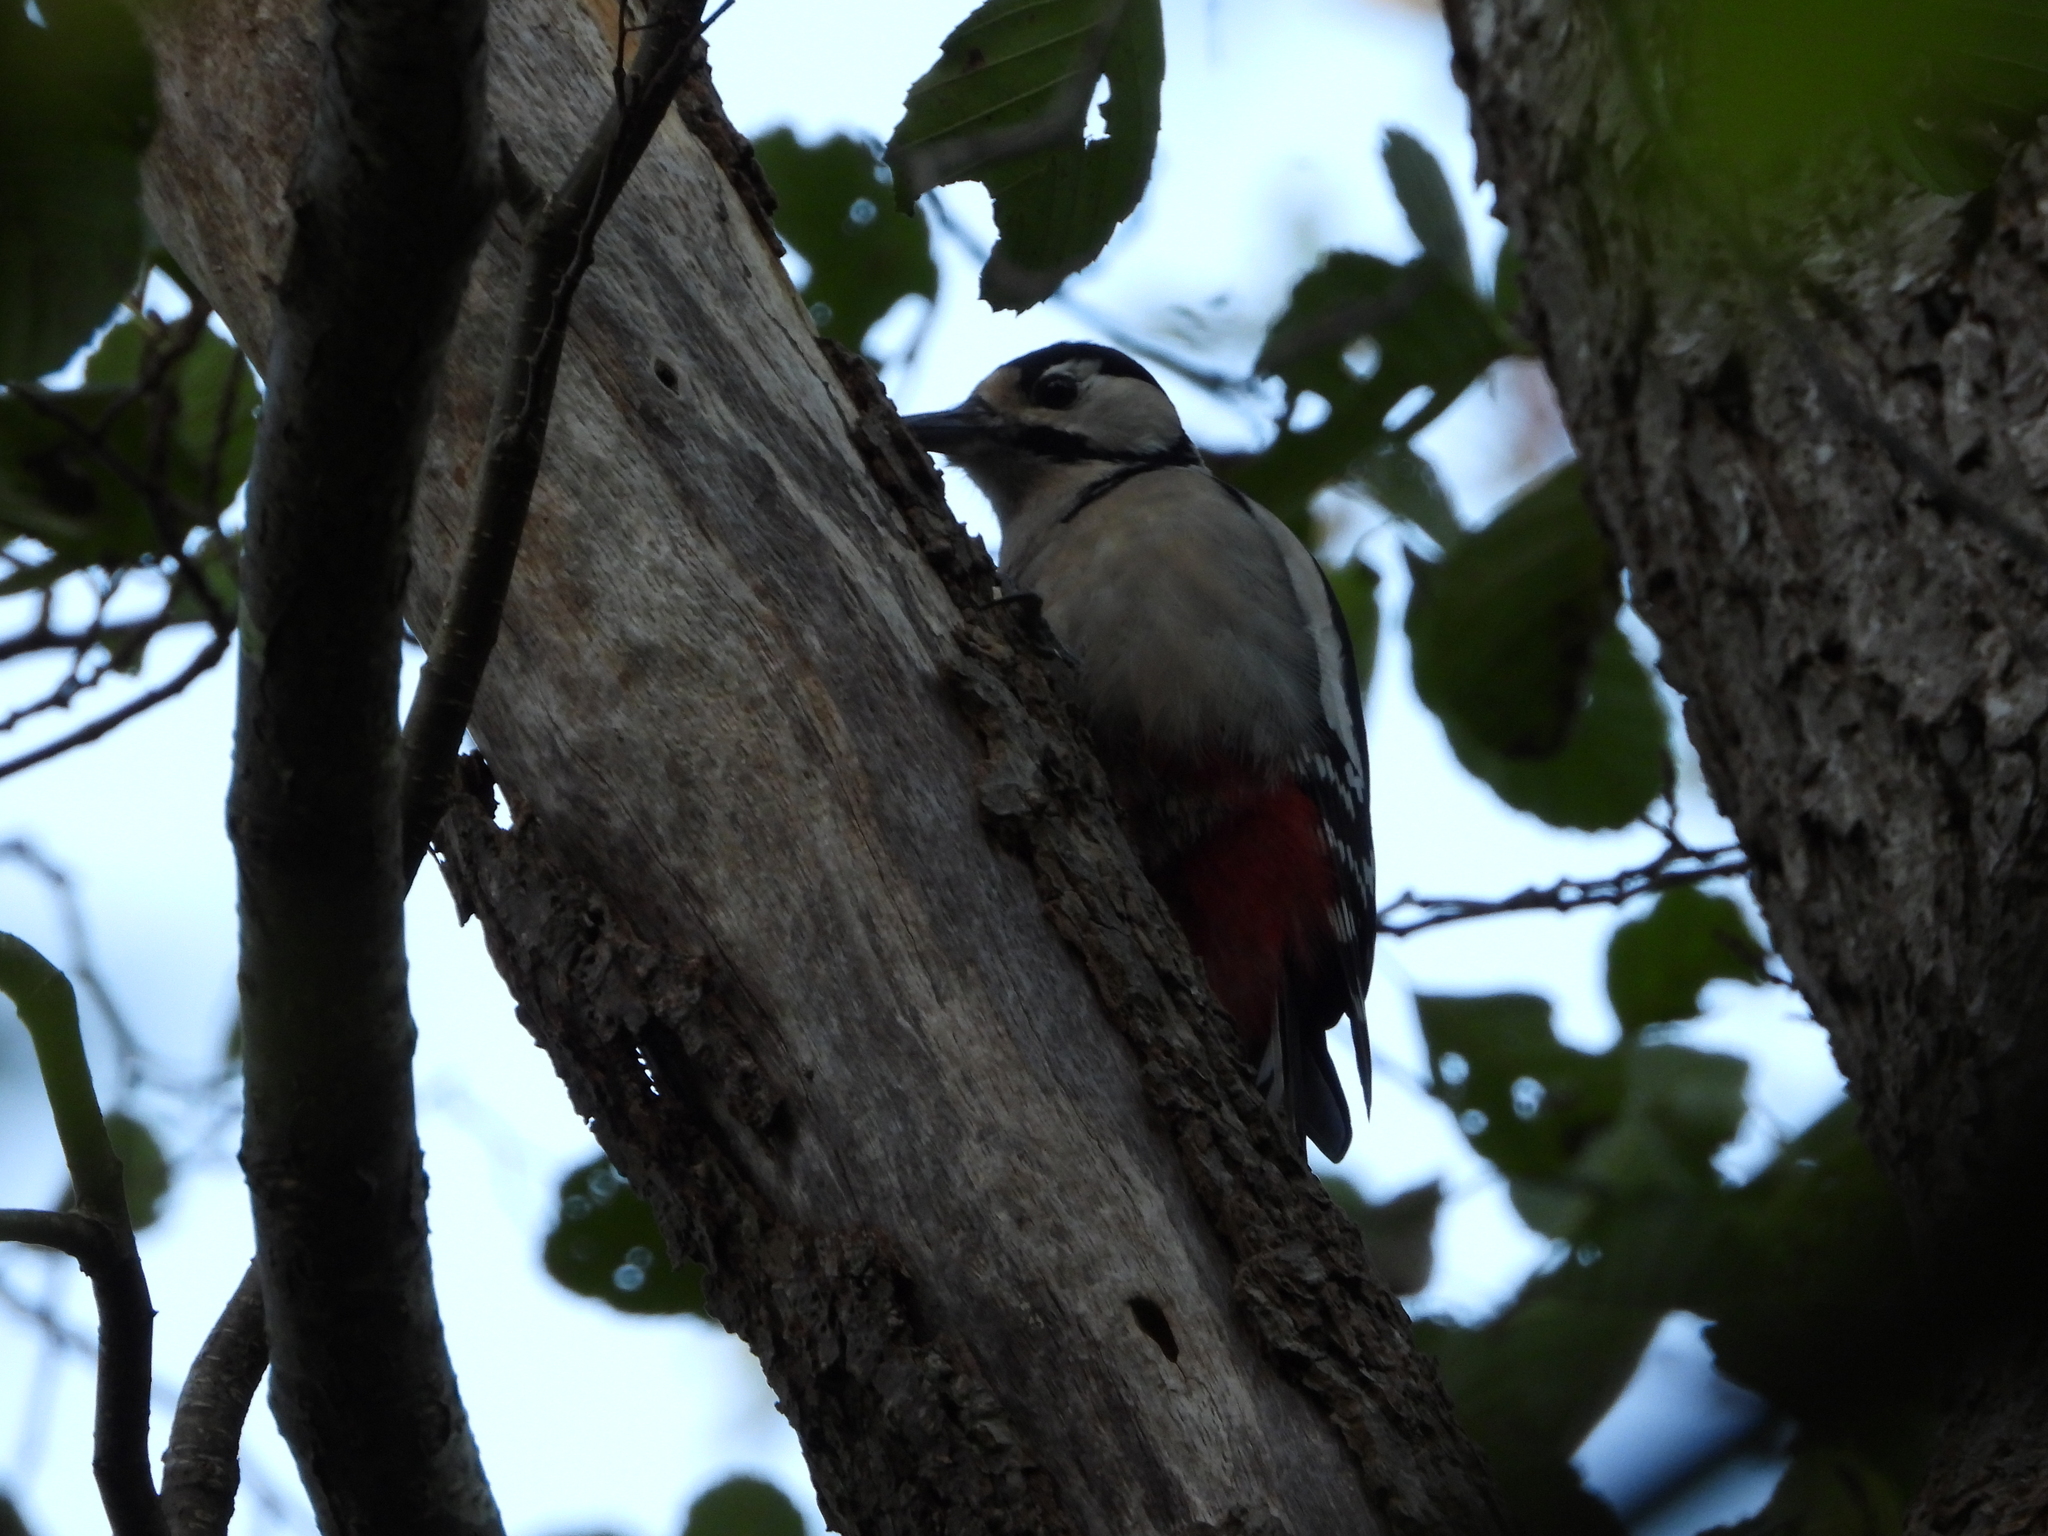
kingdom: Animalia
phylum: Chordata
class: Aves
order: Piciformes
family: Picidae
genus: Dendrocopos
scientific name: Dendrocopos major
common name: Great spotted woodpecker
